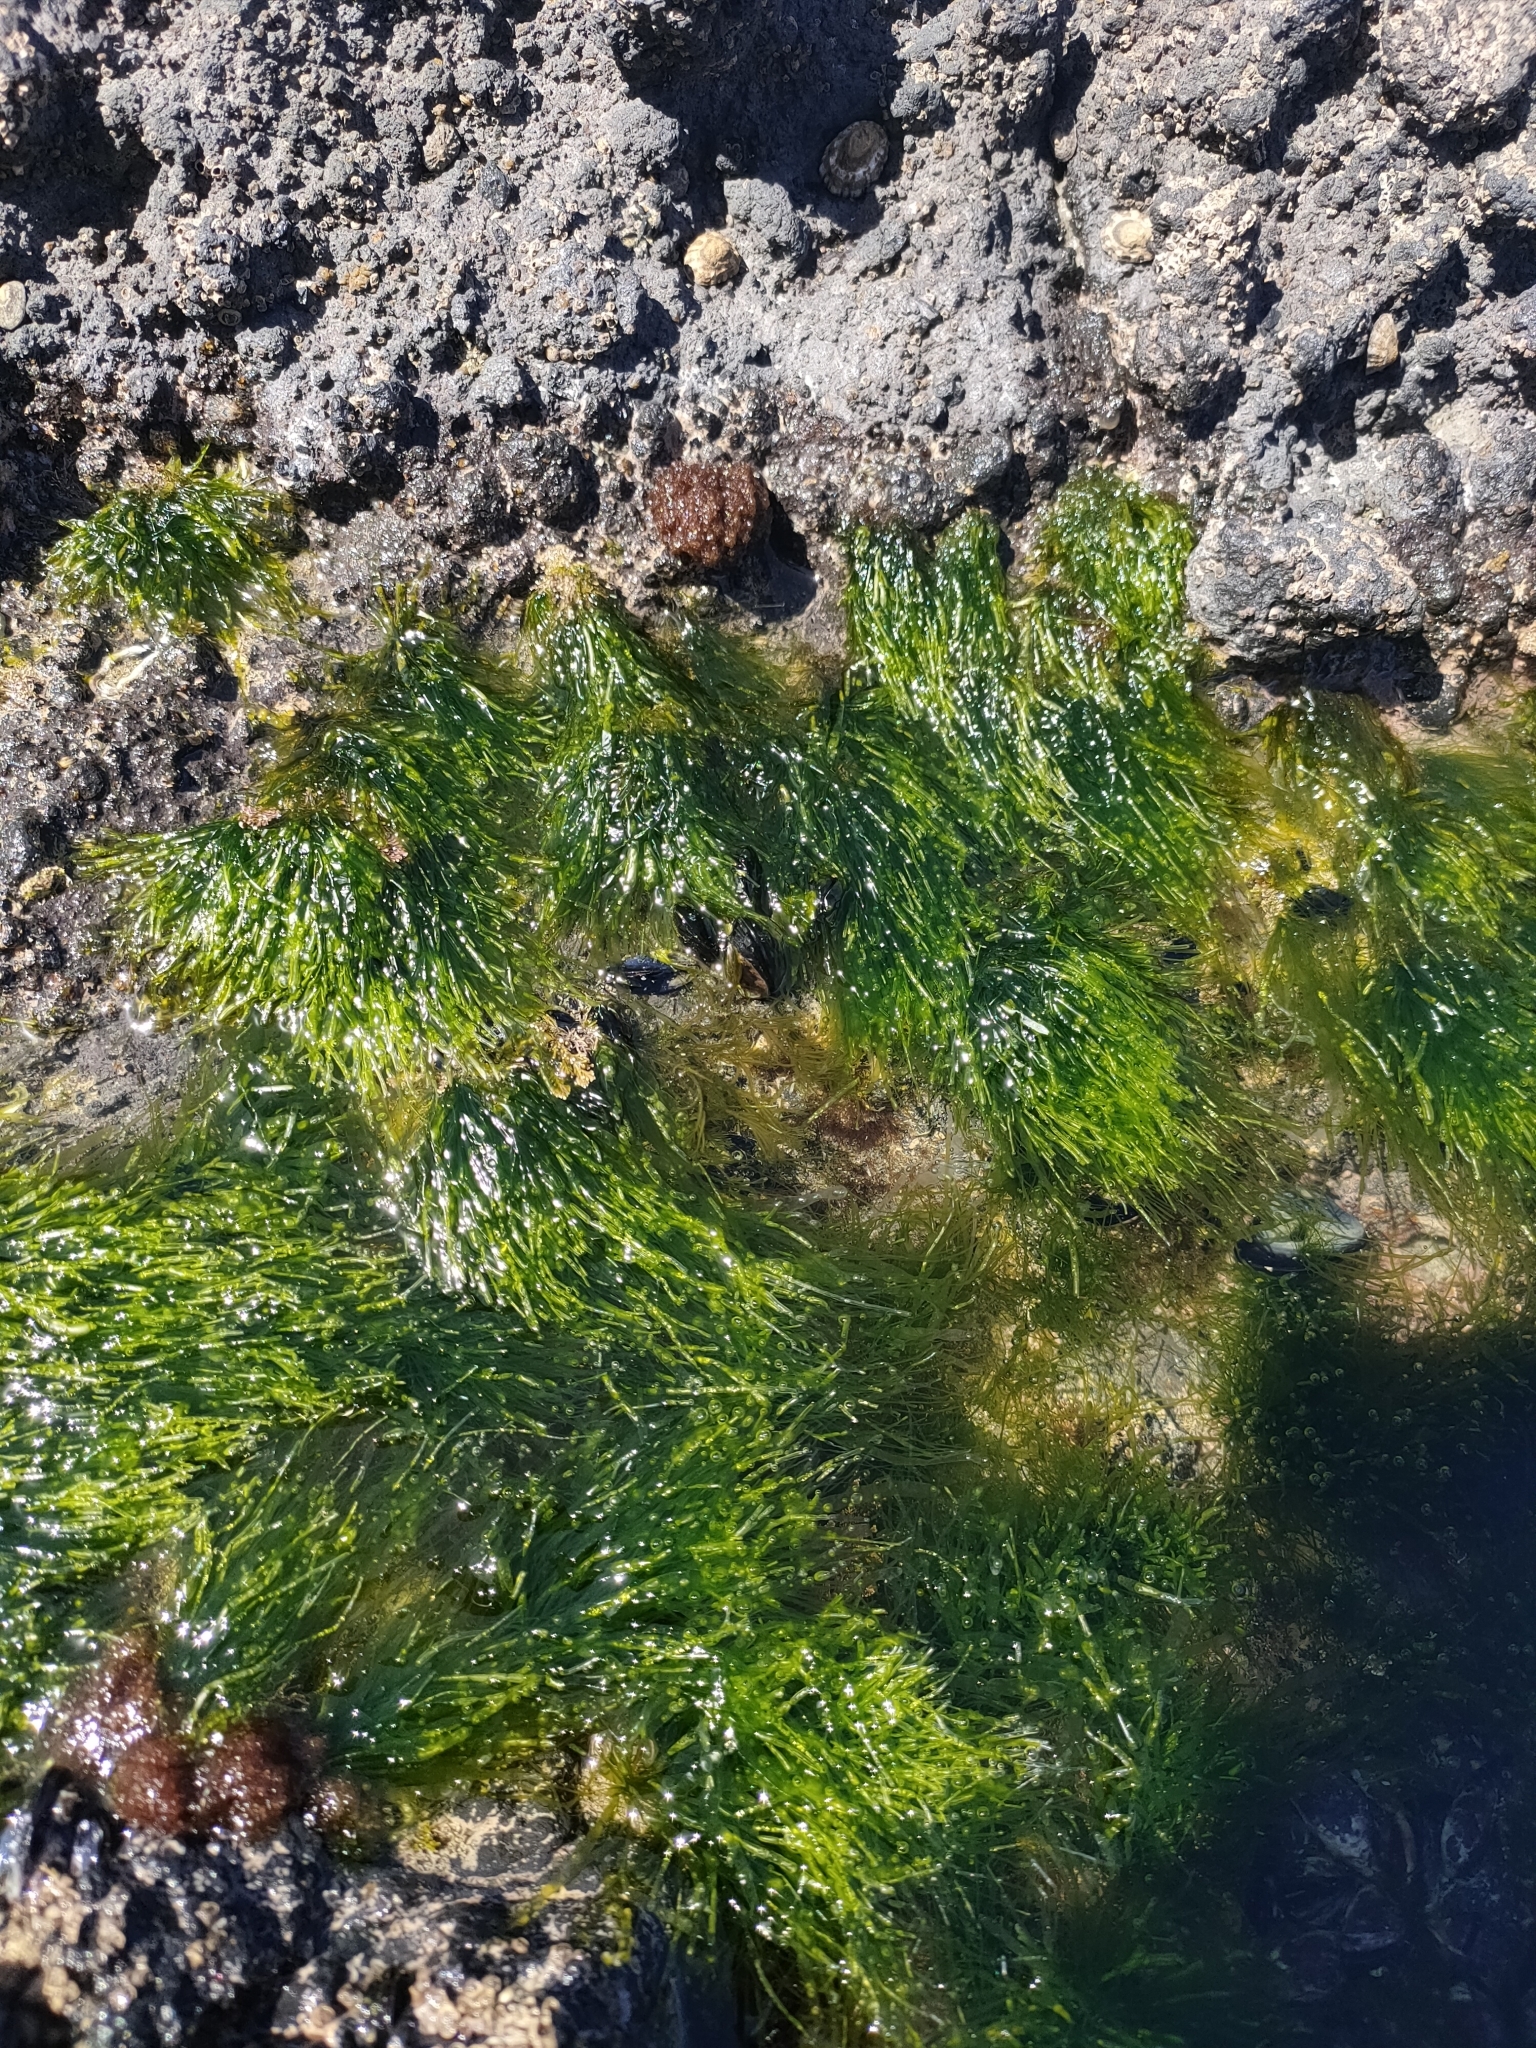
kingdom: Plantae
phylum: Chlorophyta
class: Ulvophyceae
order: Ulvales
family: Ulvaceae
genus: Ulva
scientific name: Ulva intestinalis
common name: Gut weed
